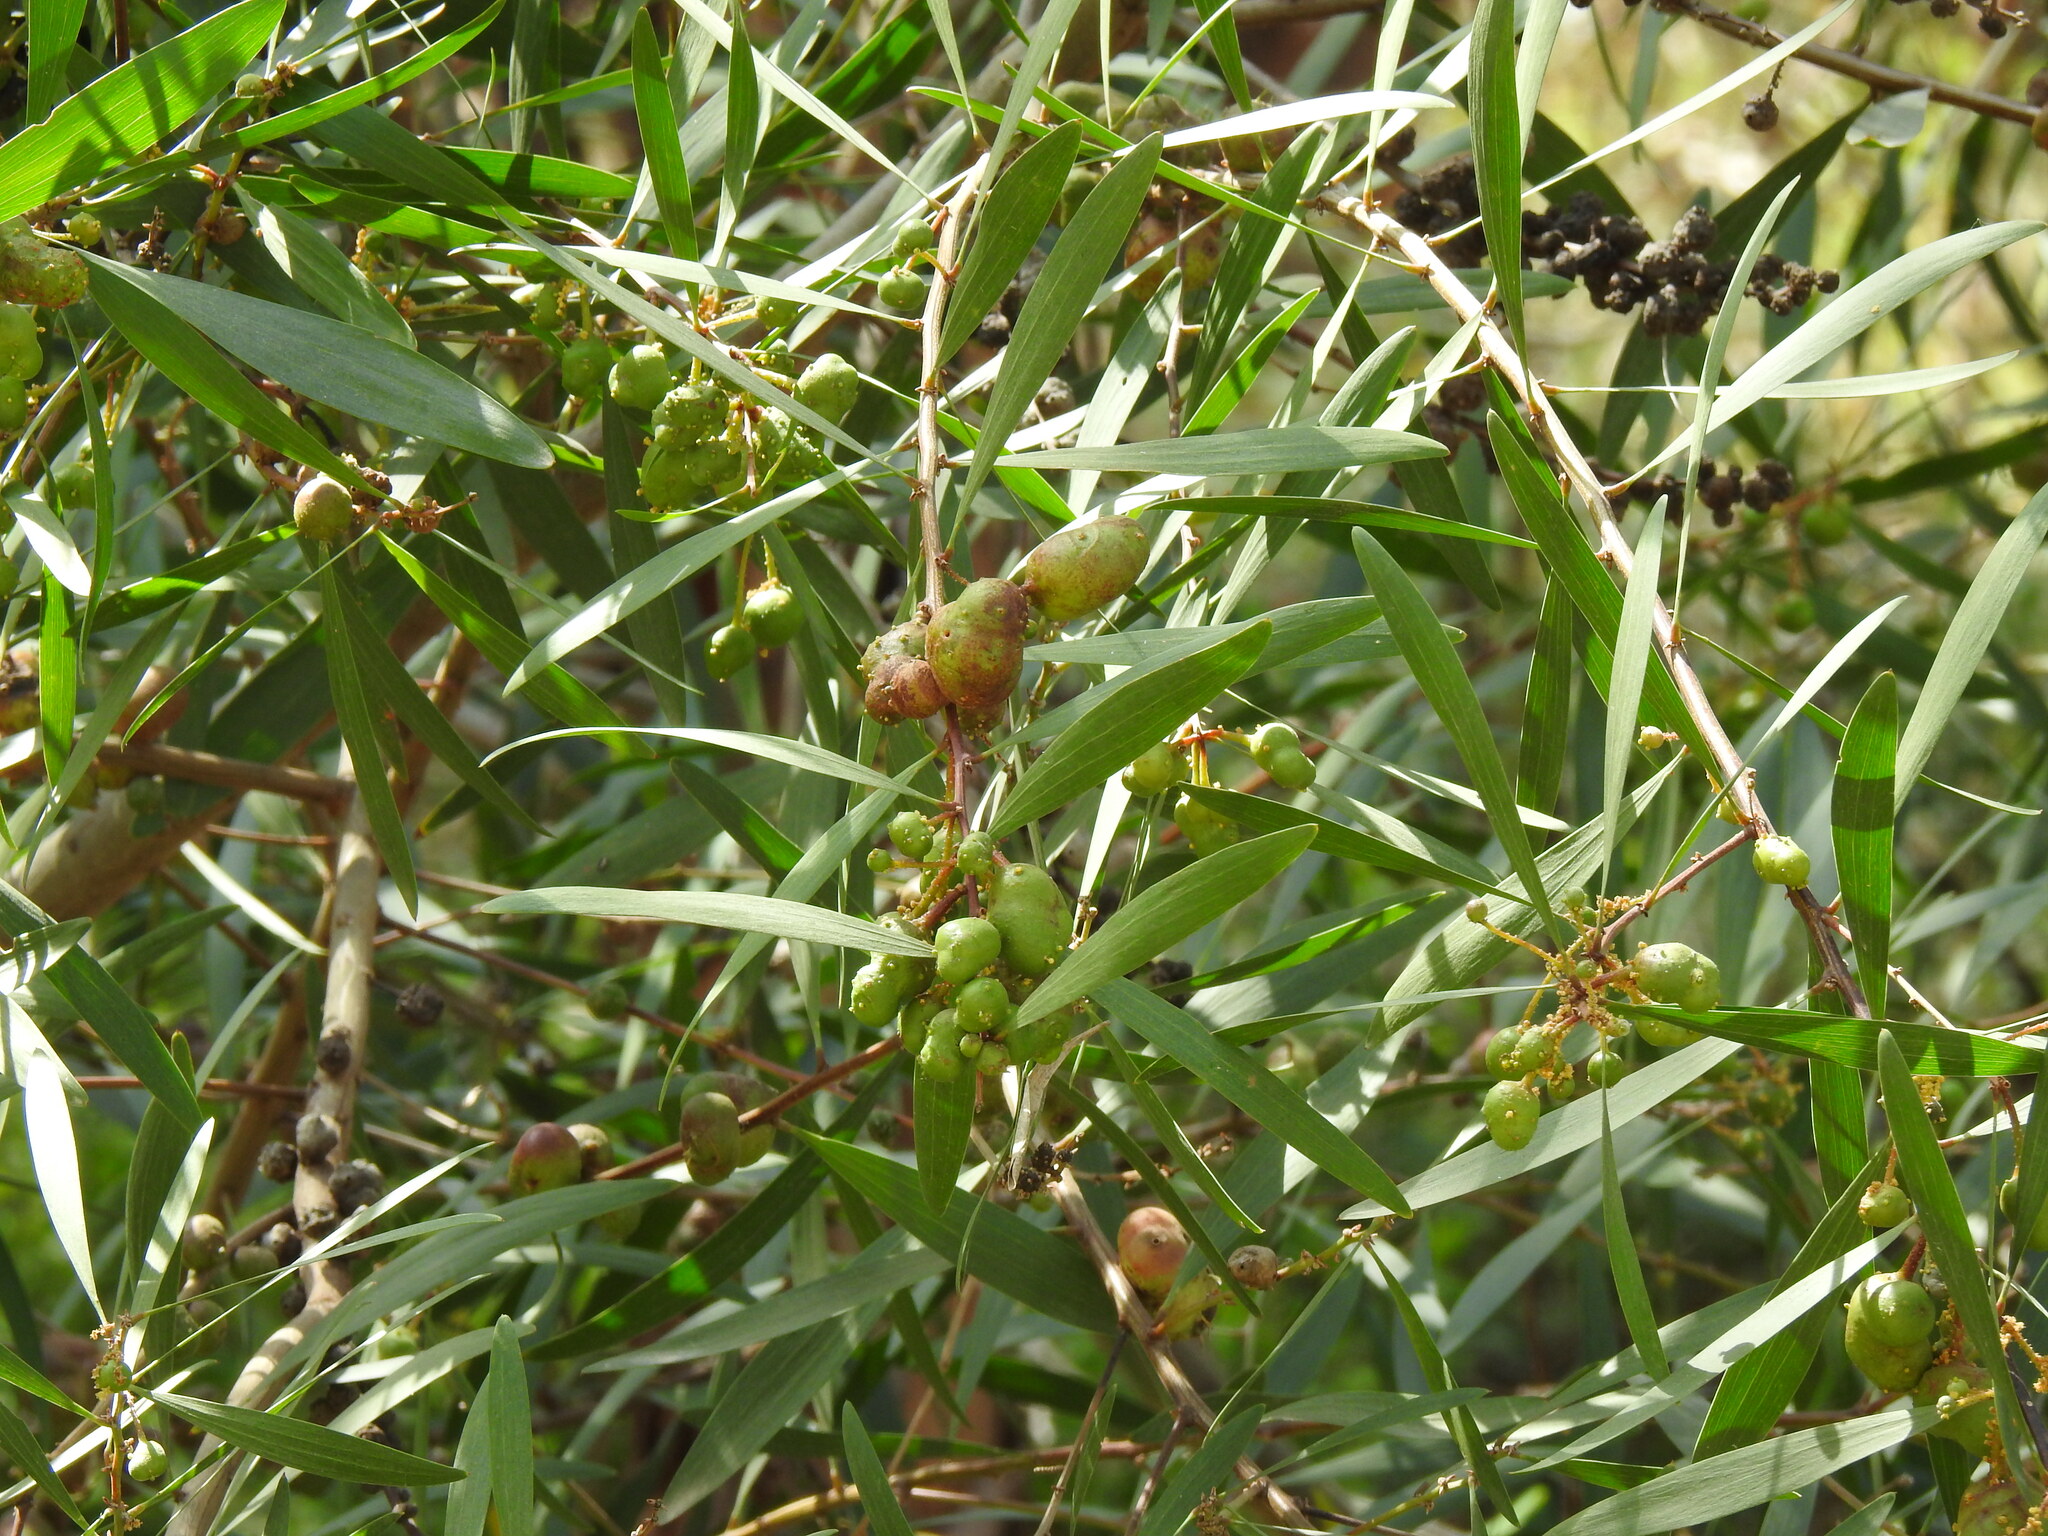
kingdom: Plantae
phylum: Tracheophyta
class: Magnoliopsida
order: Fabales
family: Fabaceae
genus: Acacia
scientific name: Acacia longifolia
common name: Sydney golden wattle
